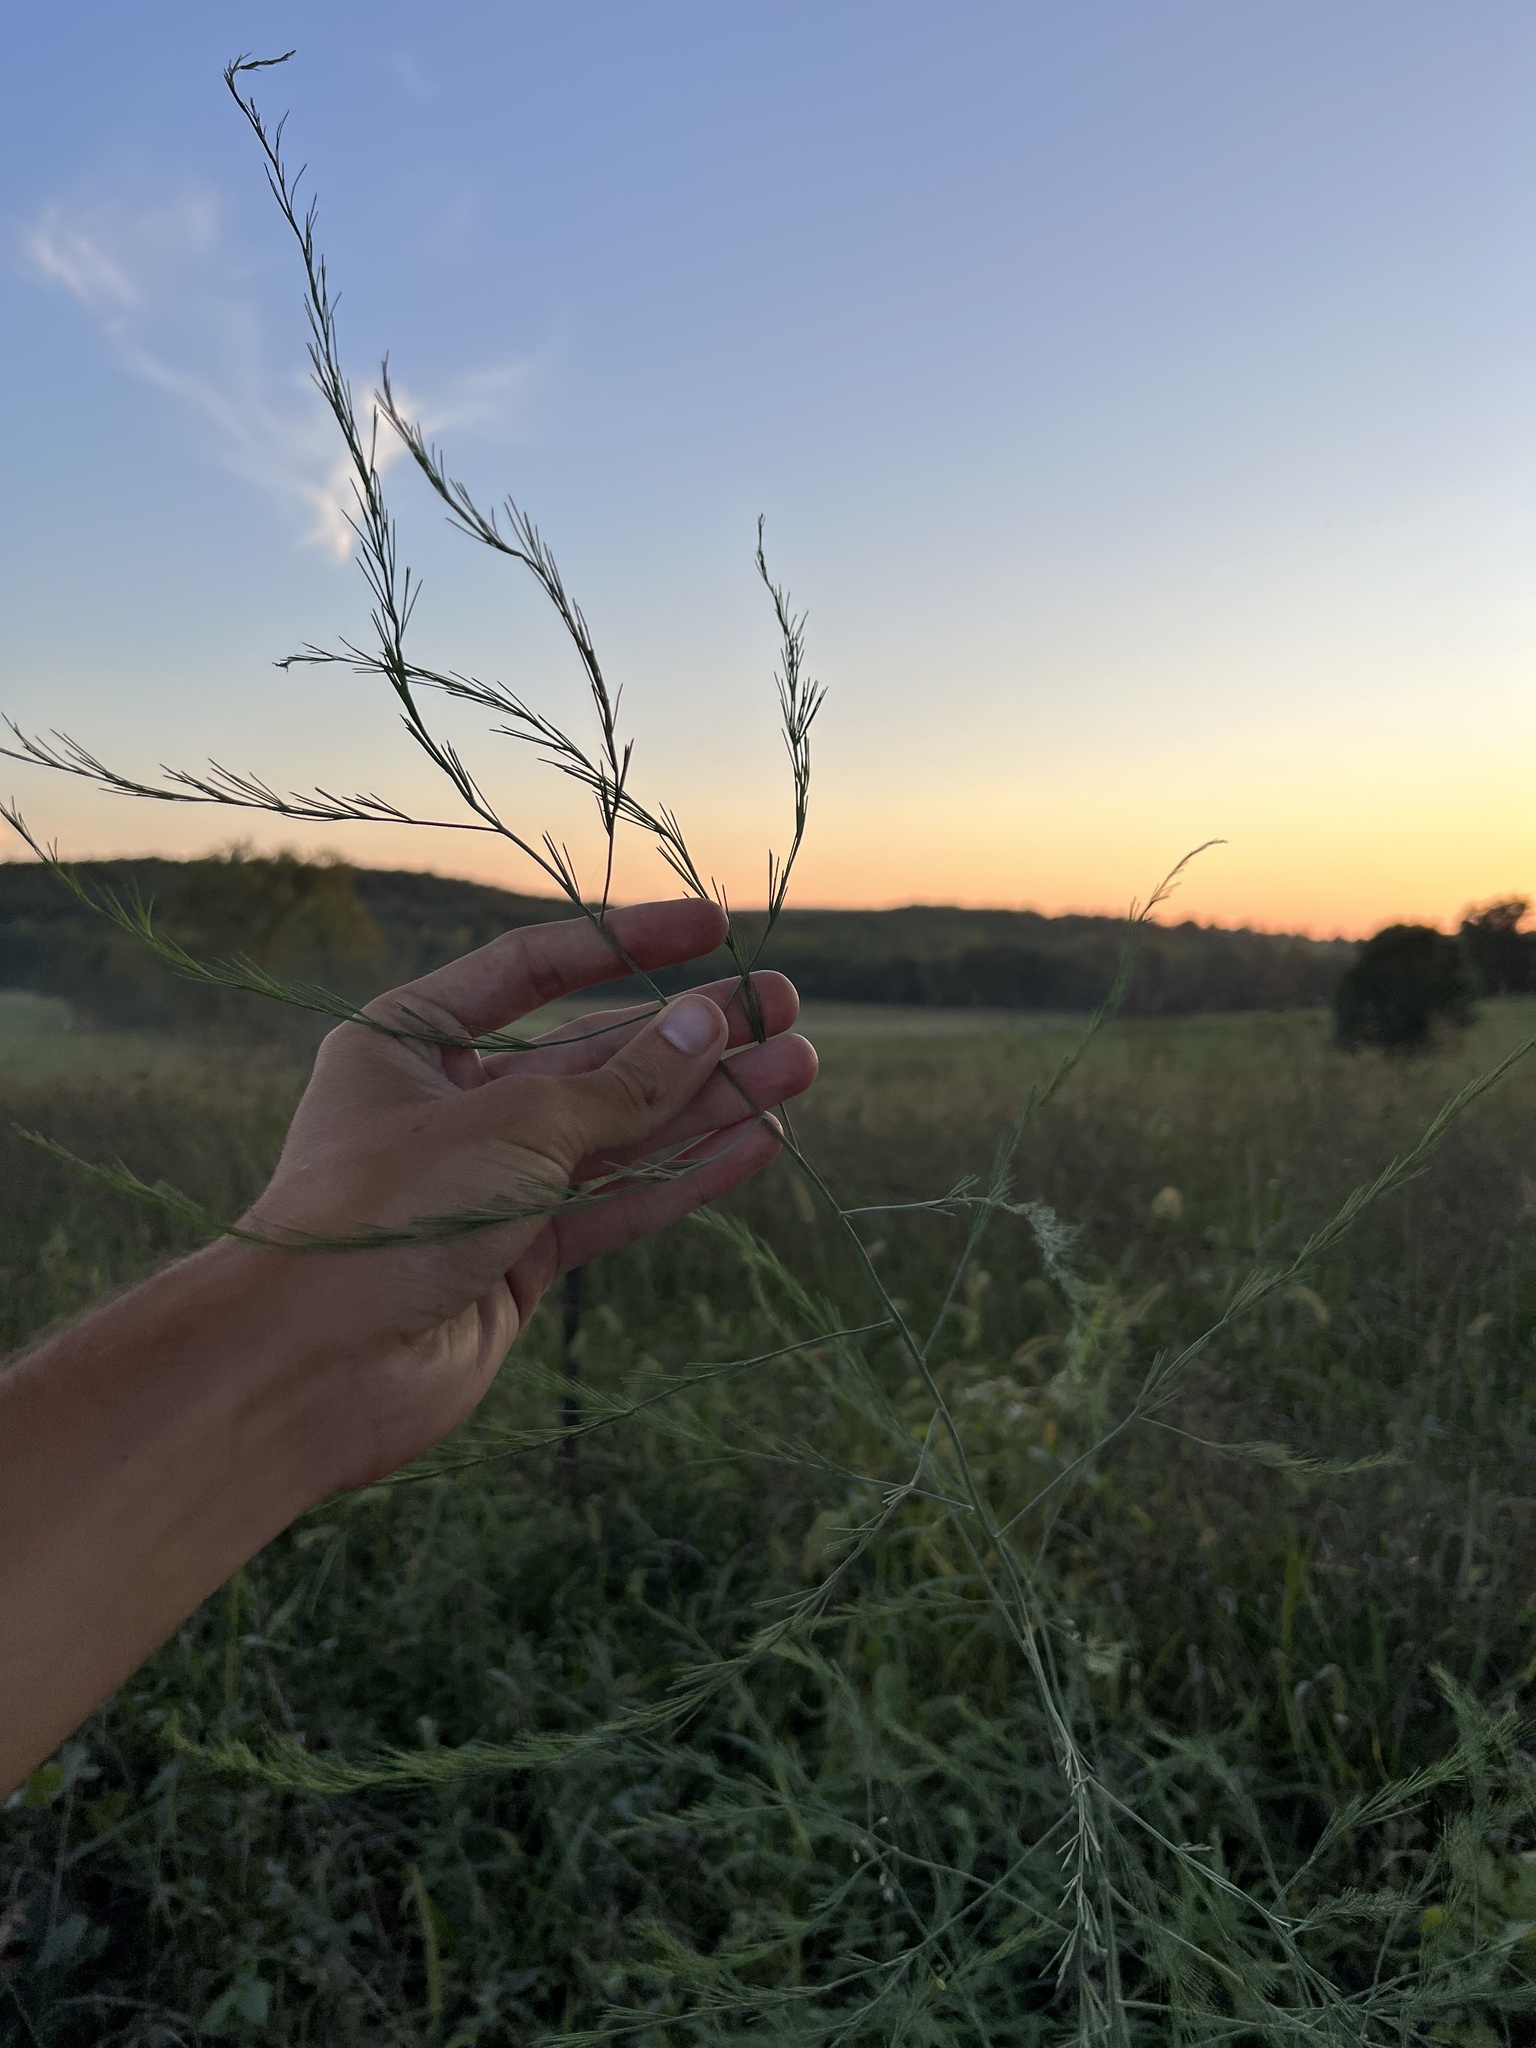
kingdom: Plantae
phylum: Tracheophyta
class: Liliopsida
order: Asparagales
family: Asparagaceae
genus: Asparagus
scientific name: Asparagus officinalis
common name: Garden asparagus
